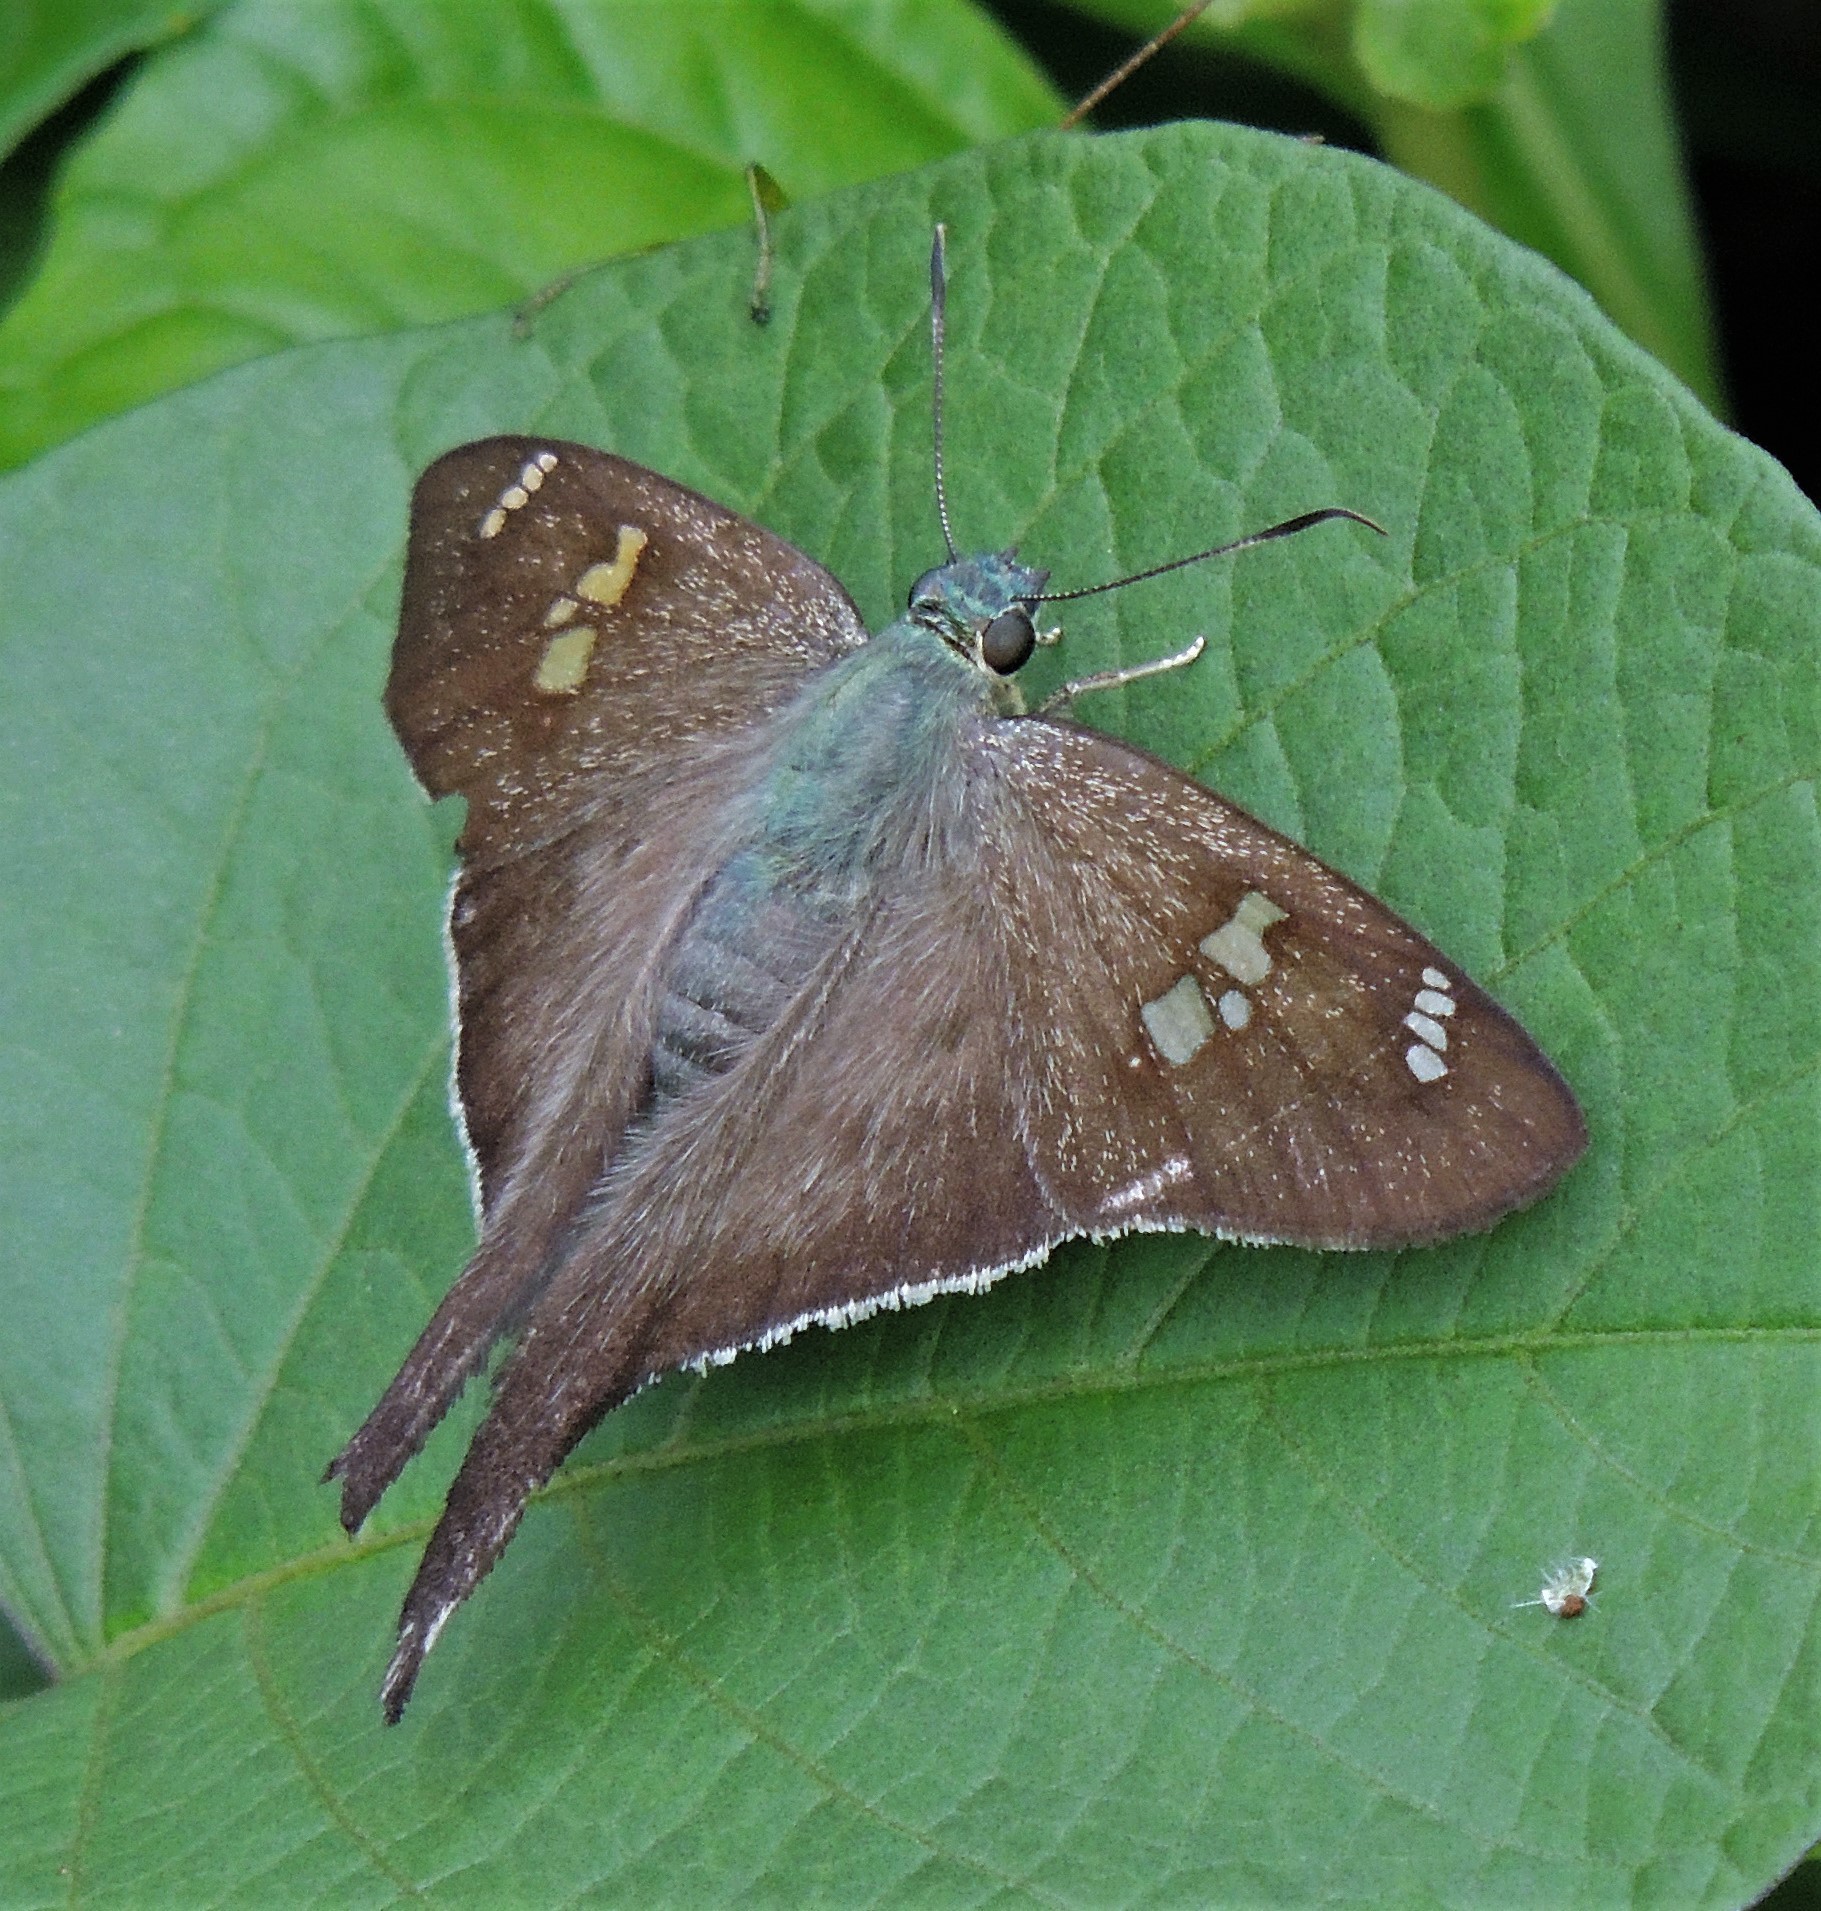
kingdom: Animalia
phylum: Arthropoda
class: Insecta
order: Lepidoptera
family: Hesperiidae
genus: Polythrix
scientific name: Polythrix caunus
